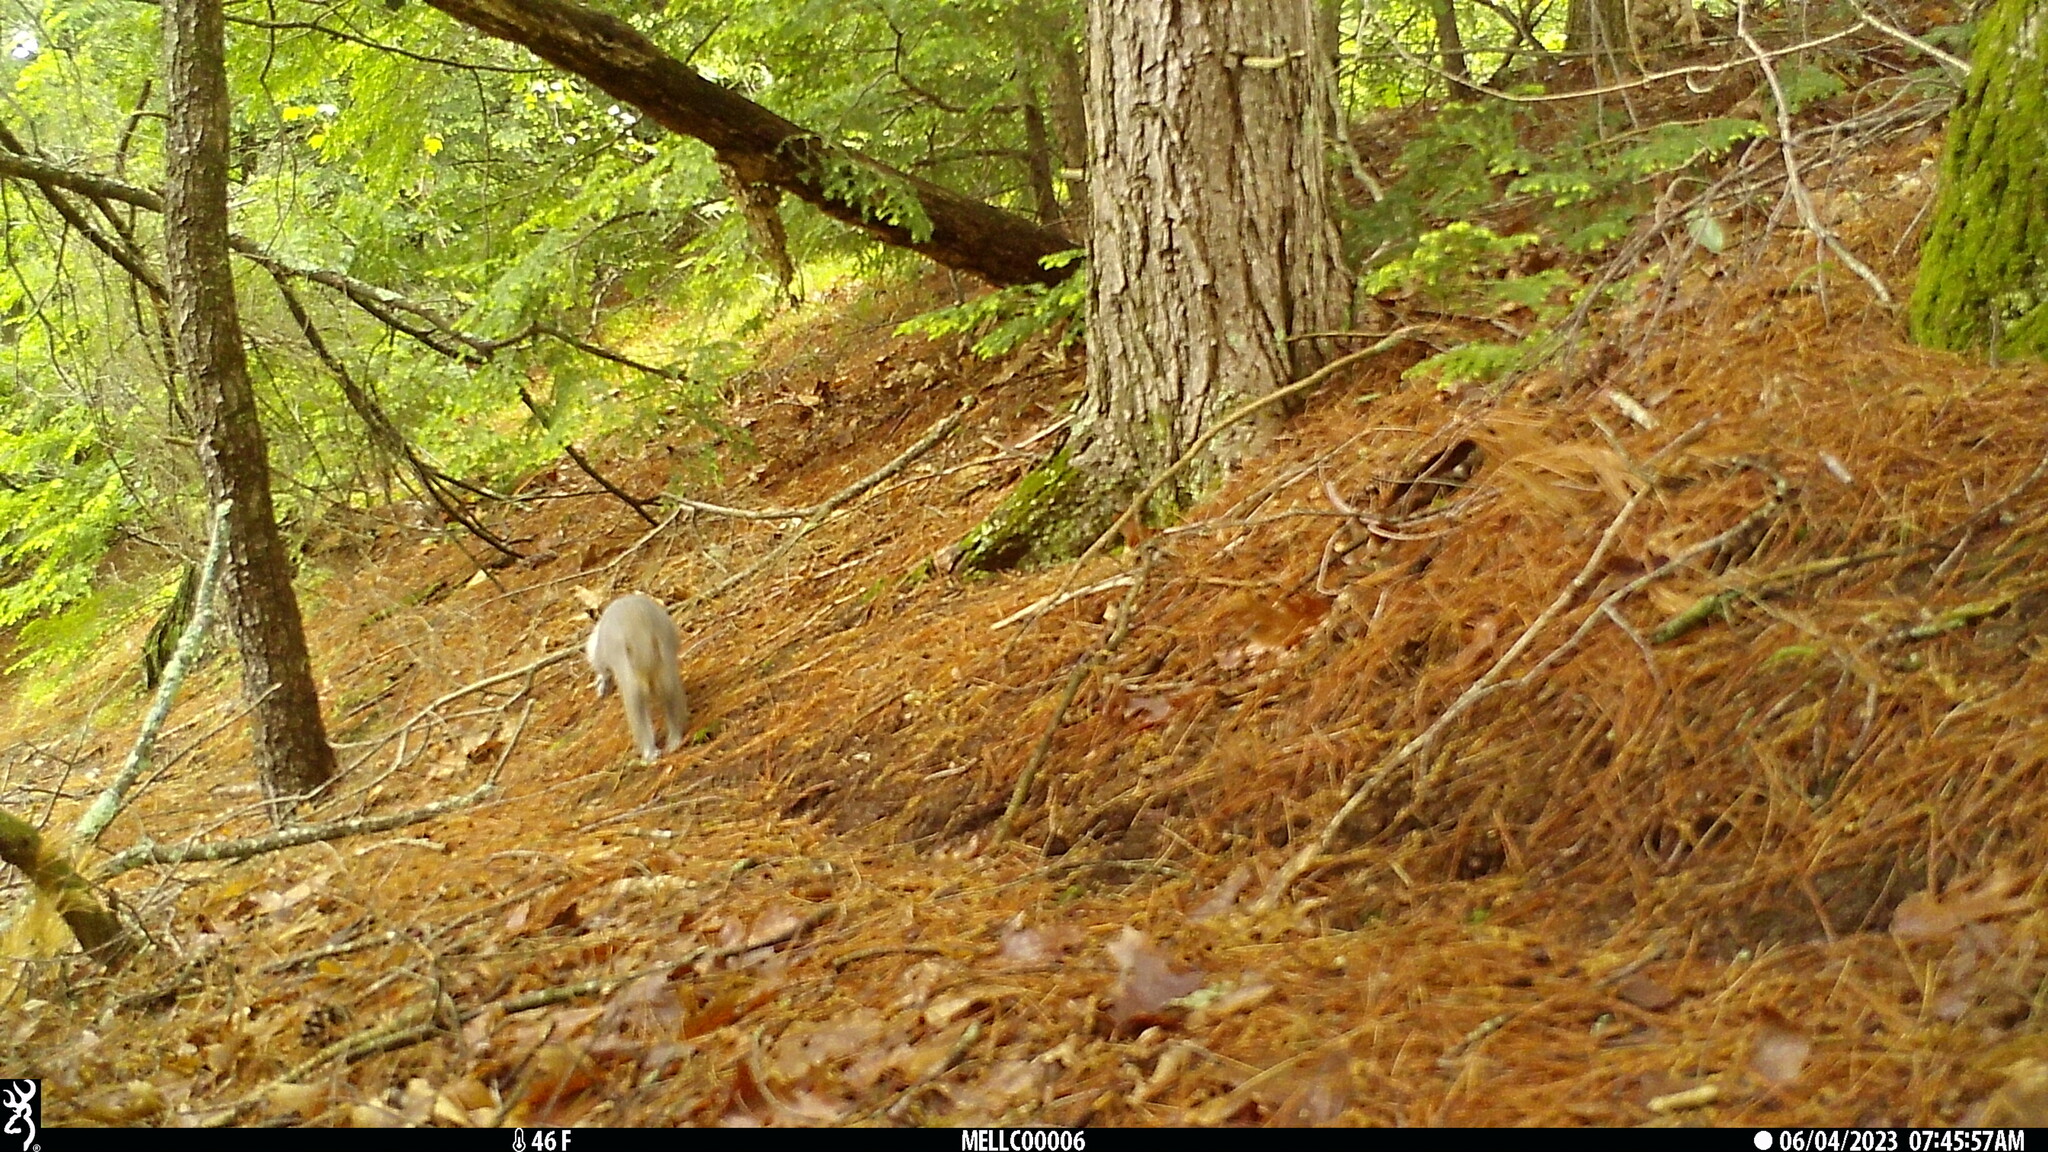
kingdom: Animalia
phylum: Chordata
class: Mammalia
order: Rodentia
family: Sciuridae
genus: Sciurus
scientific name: Sciurus carolinensis
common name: Eastern gray squirrel
